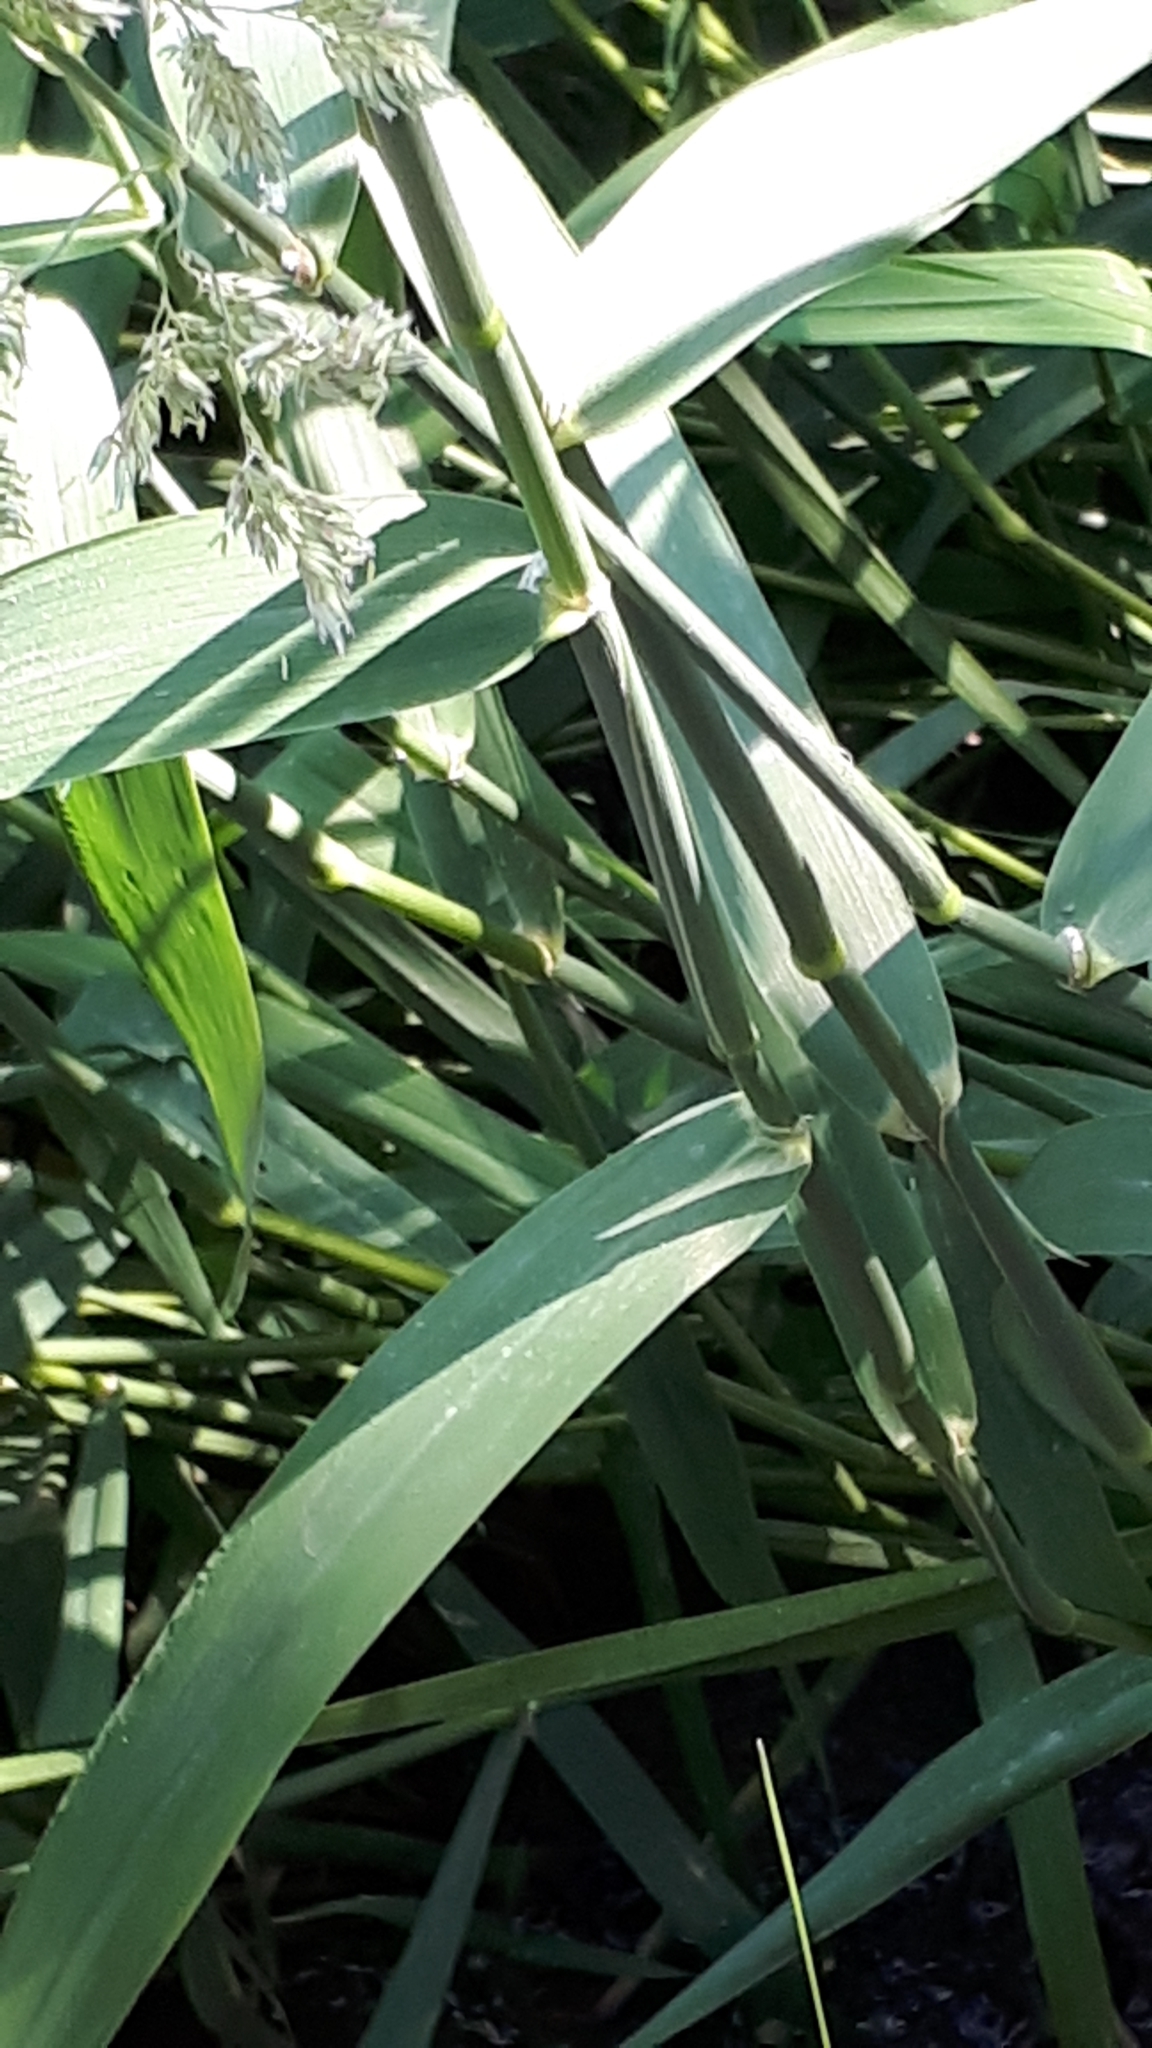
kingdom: Plantae
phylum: Tracheophyta
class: Liliopsida
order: Poales
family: Poaceae
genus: Phalaris
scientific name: Phalaris arundinacea
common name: Reed canary-grass
